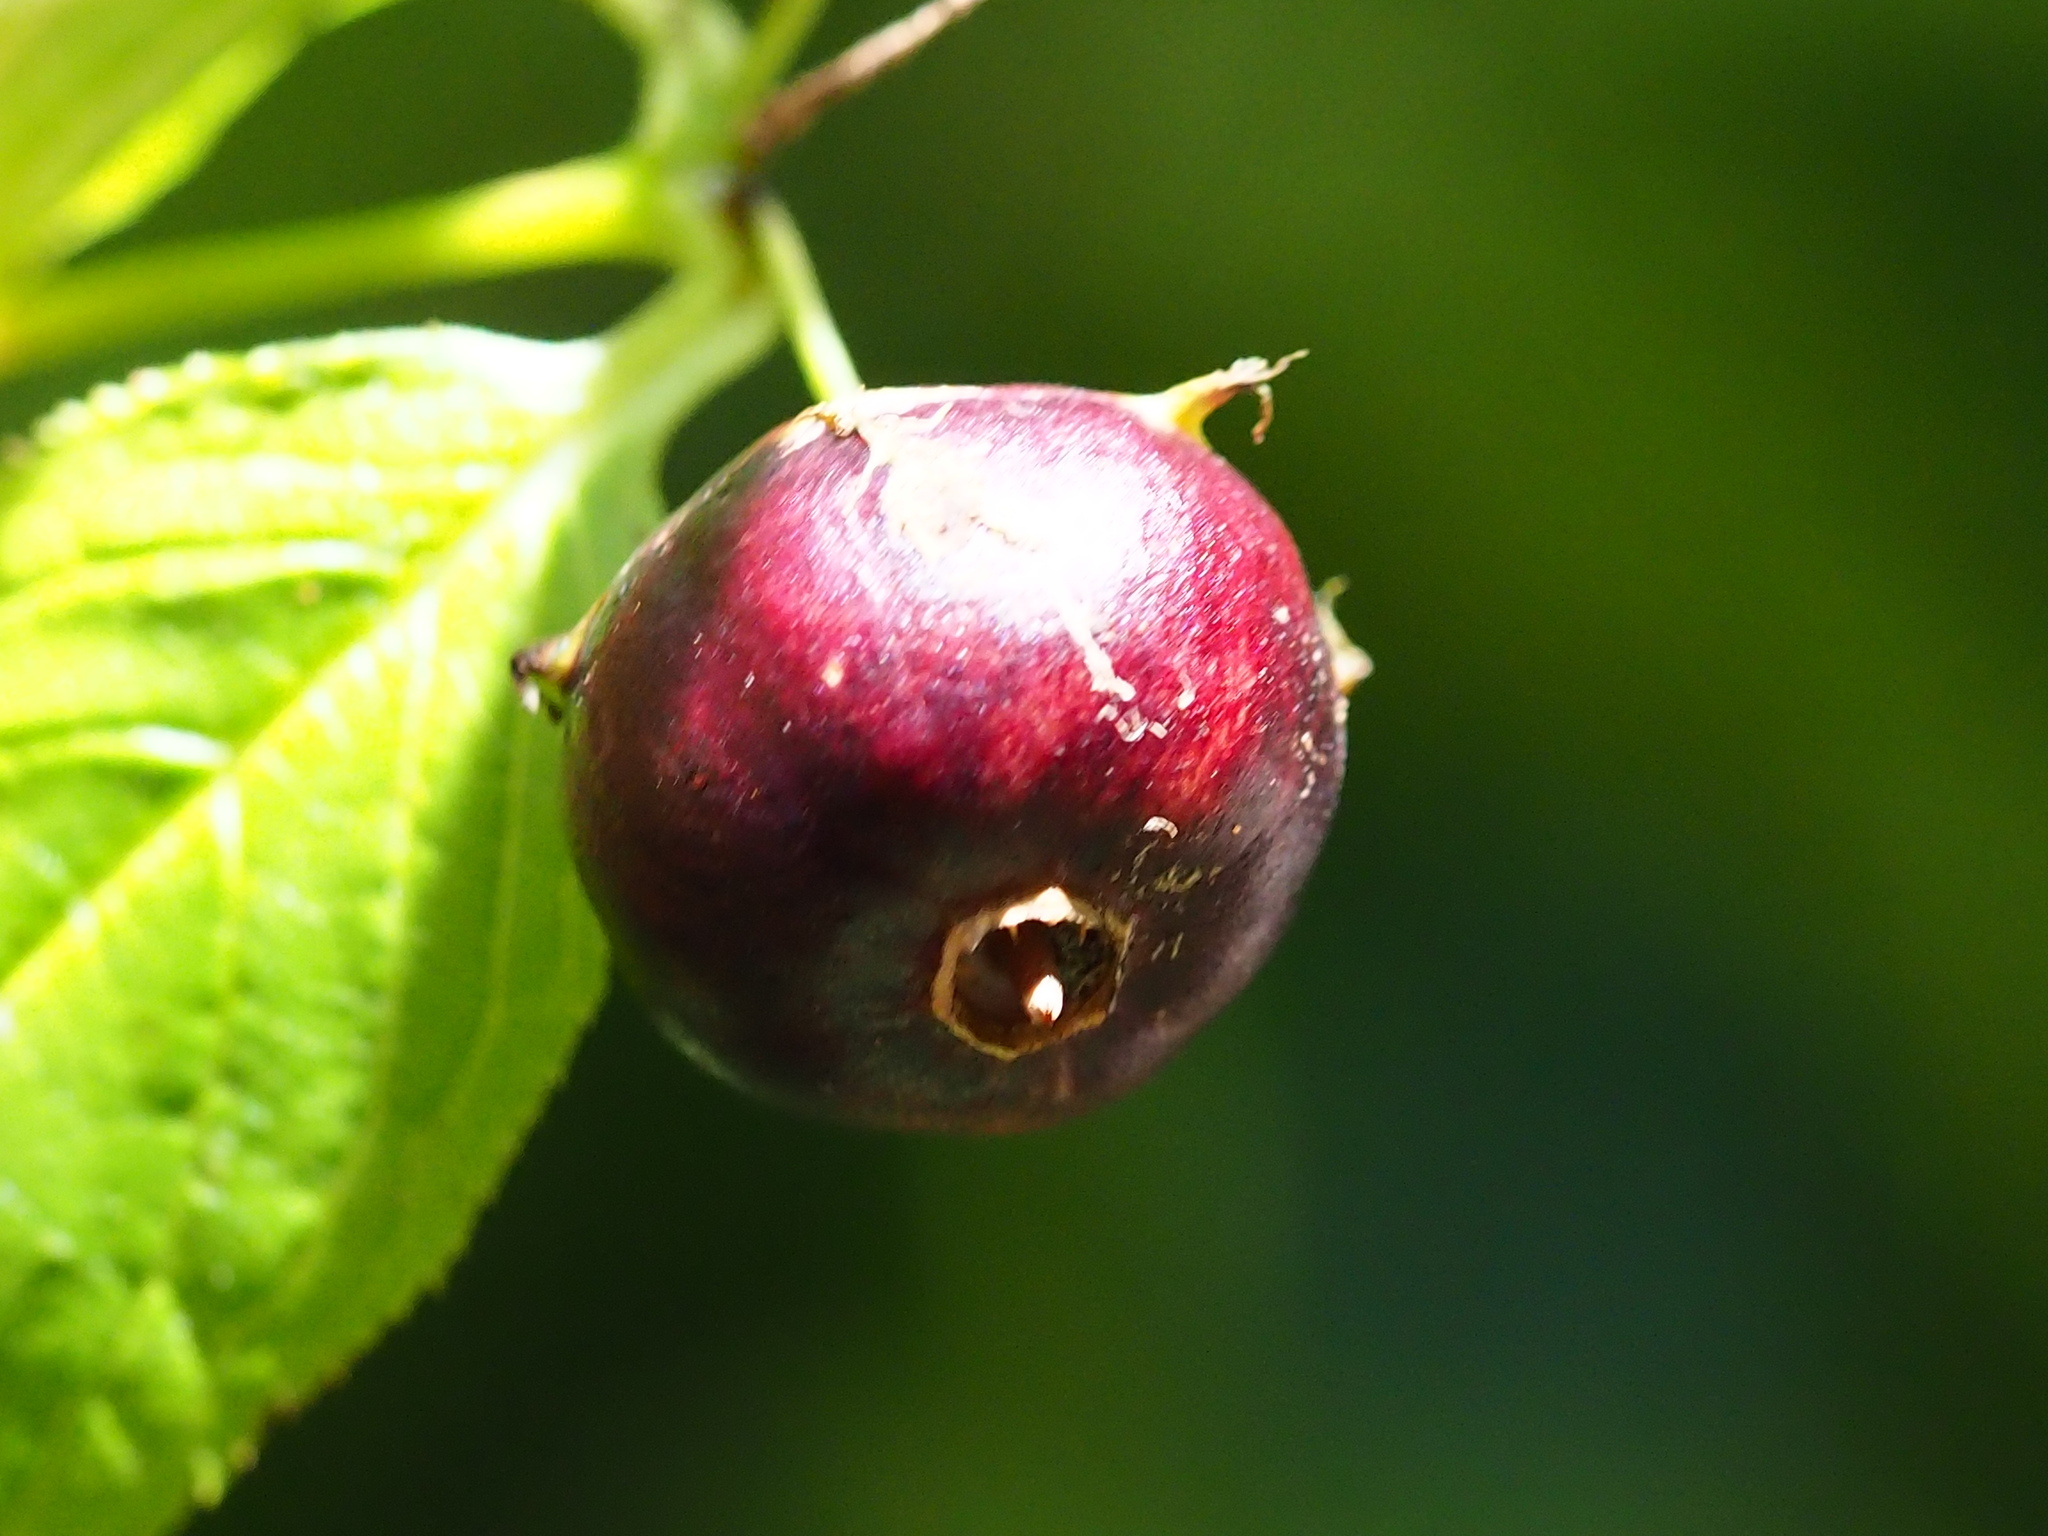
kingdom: Plantae
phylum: Tracheophyta
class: Magnoliopsida
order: Asterales
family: Campanulaceae
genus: Cyclocodon
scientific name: Cyclocodon lancifolius
